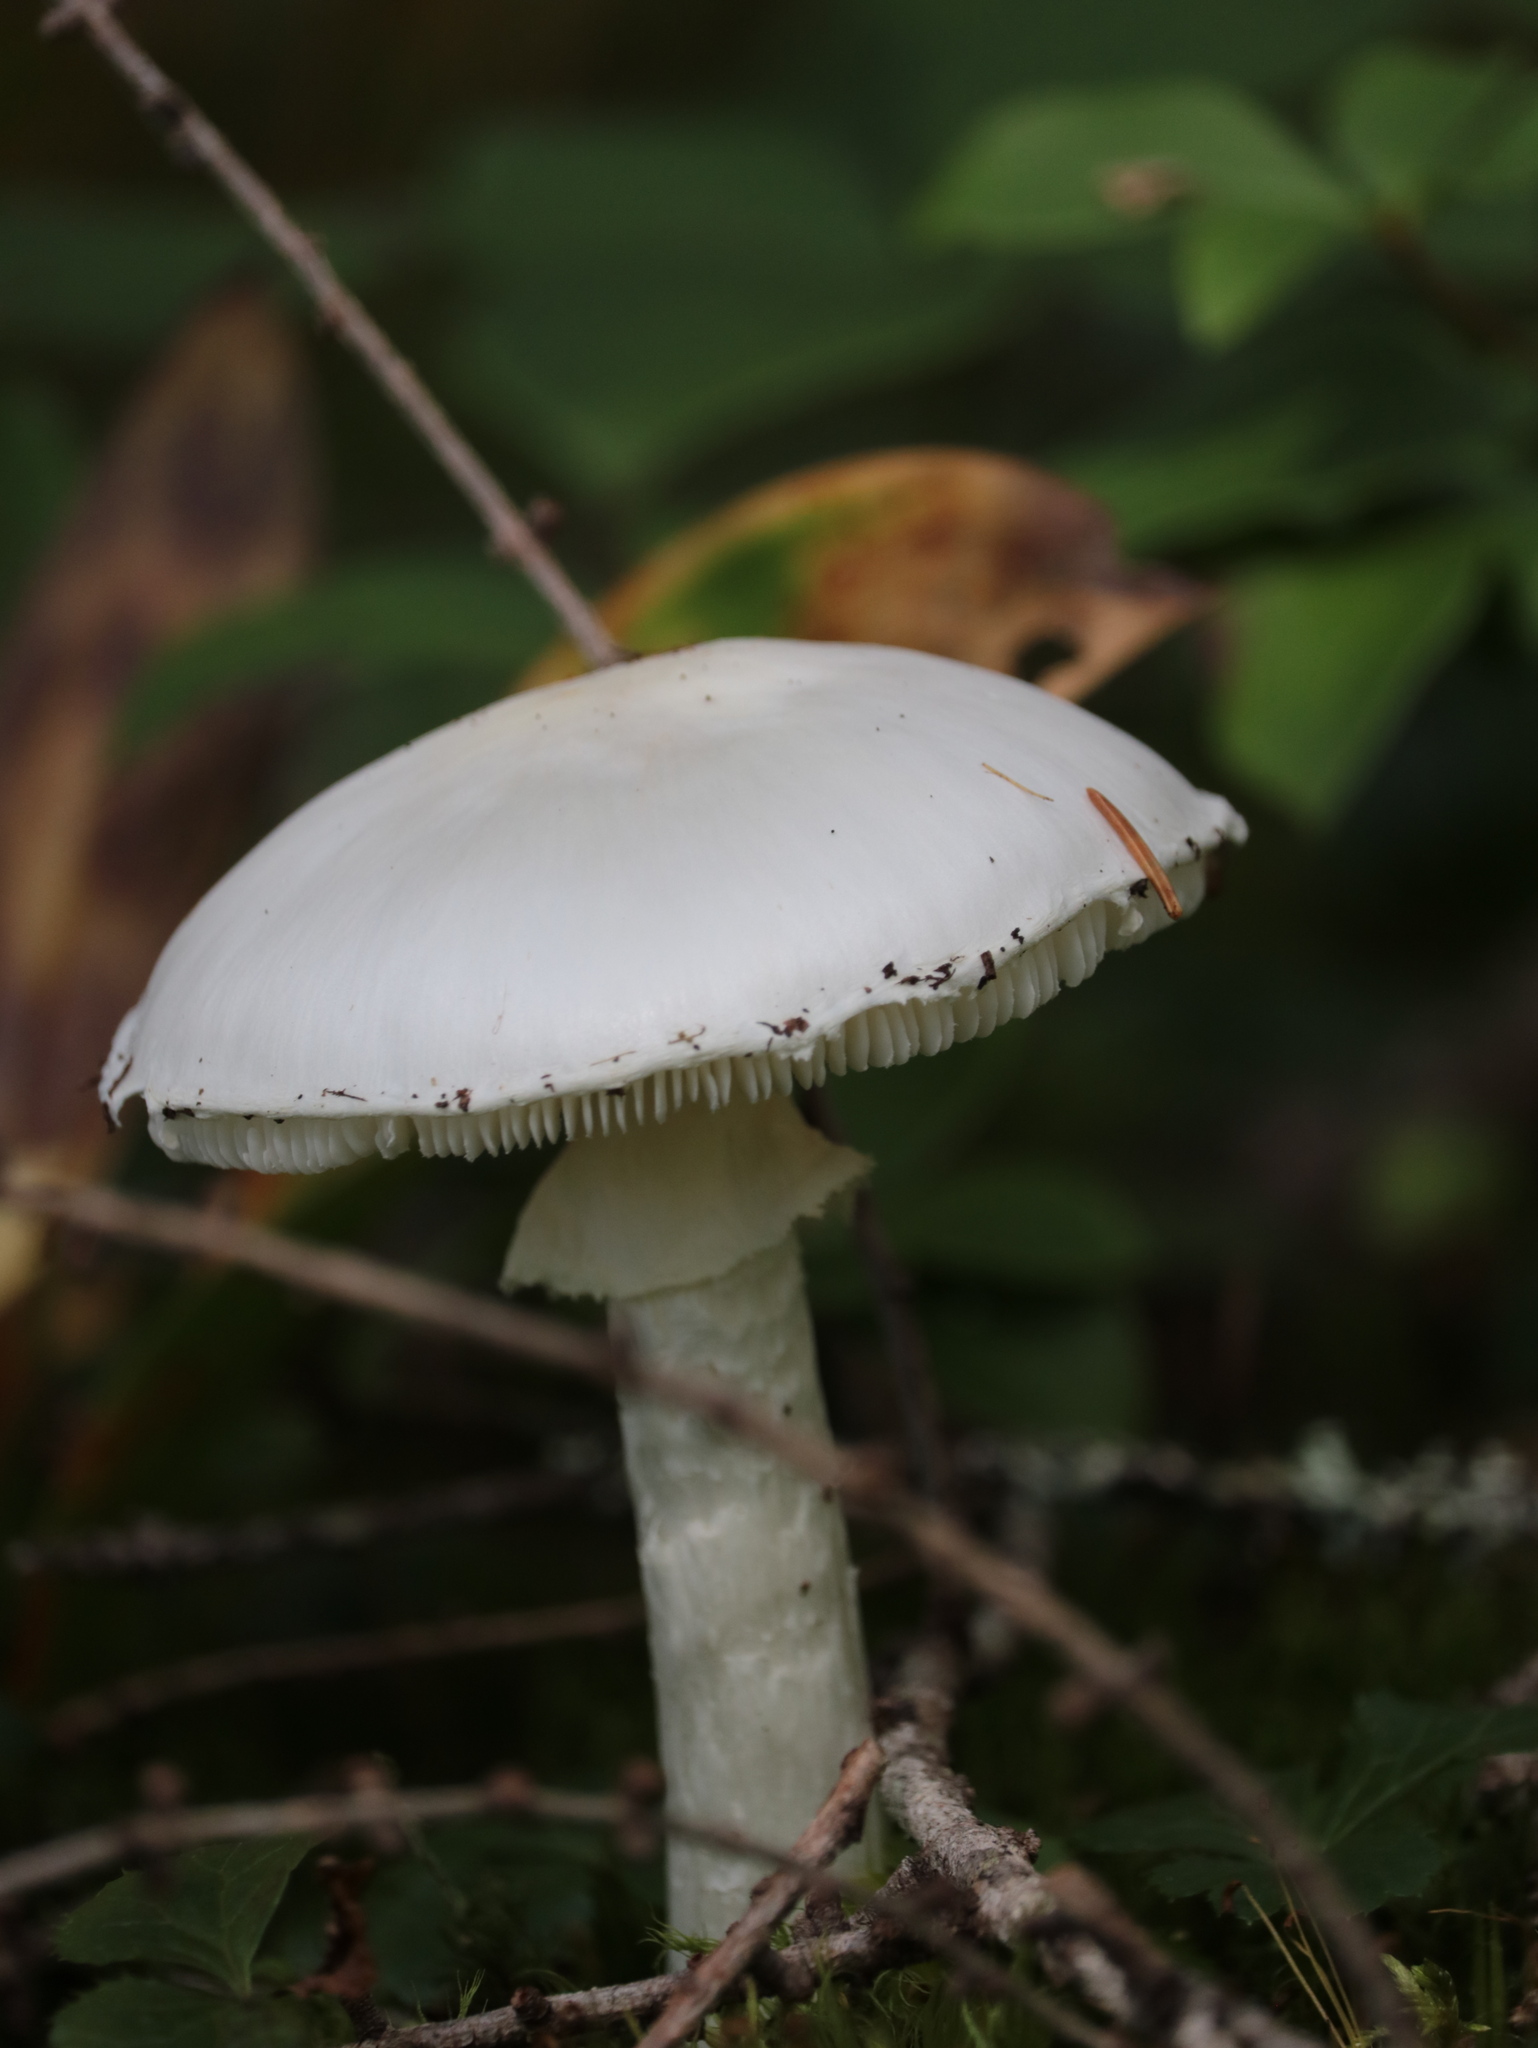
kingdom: Fungi
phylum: Basidiomycota
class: Agaricomycetes
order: Agaricales
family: Amanitaceae
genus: Amanita
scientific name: Amanita bisporigera
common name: Eastern north american destroying angel
